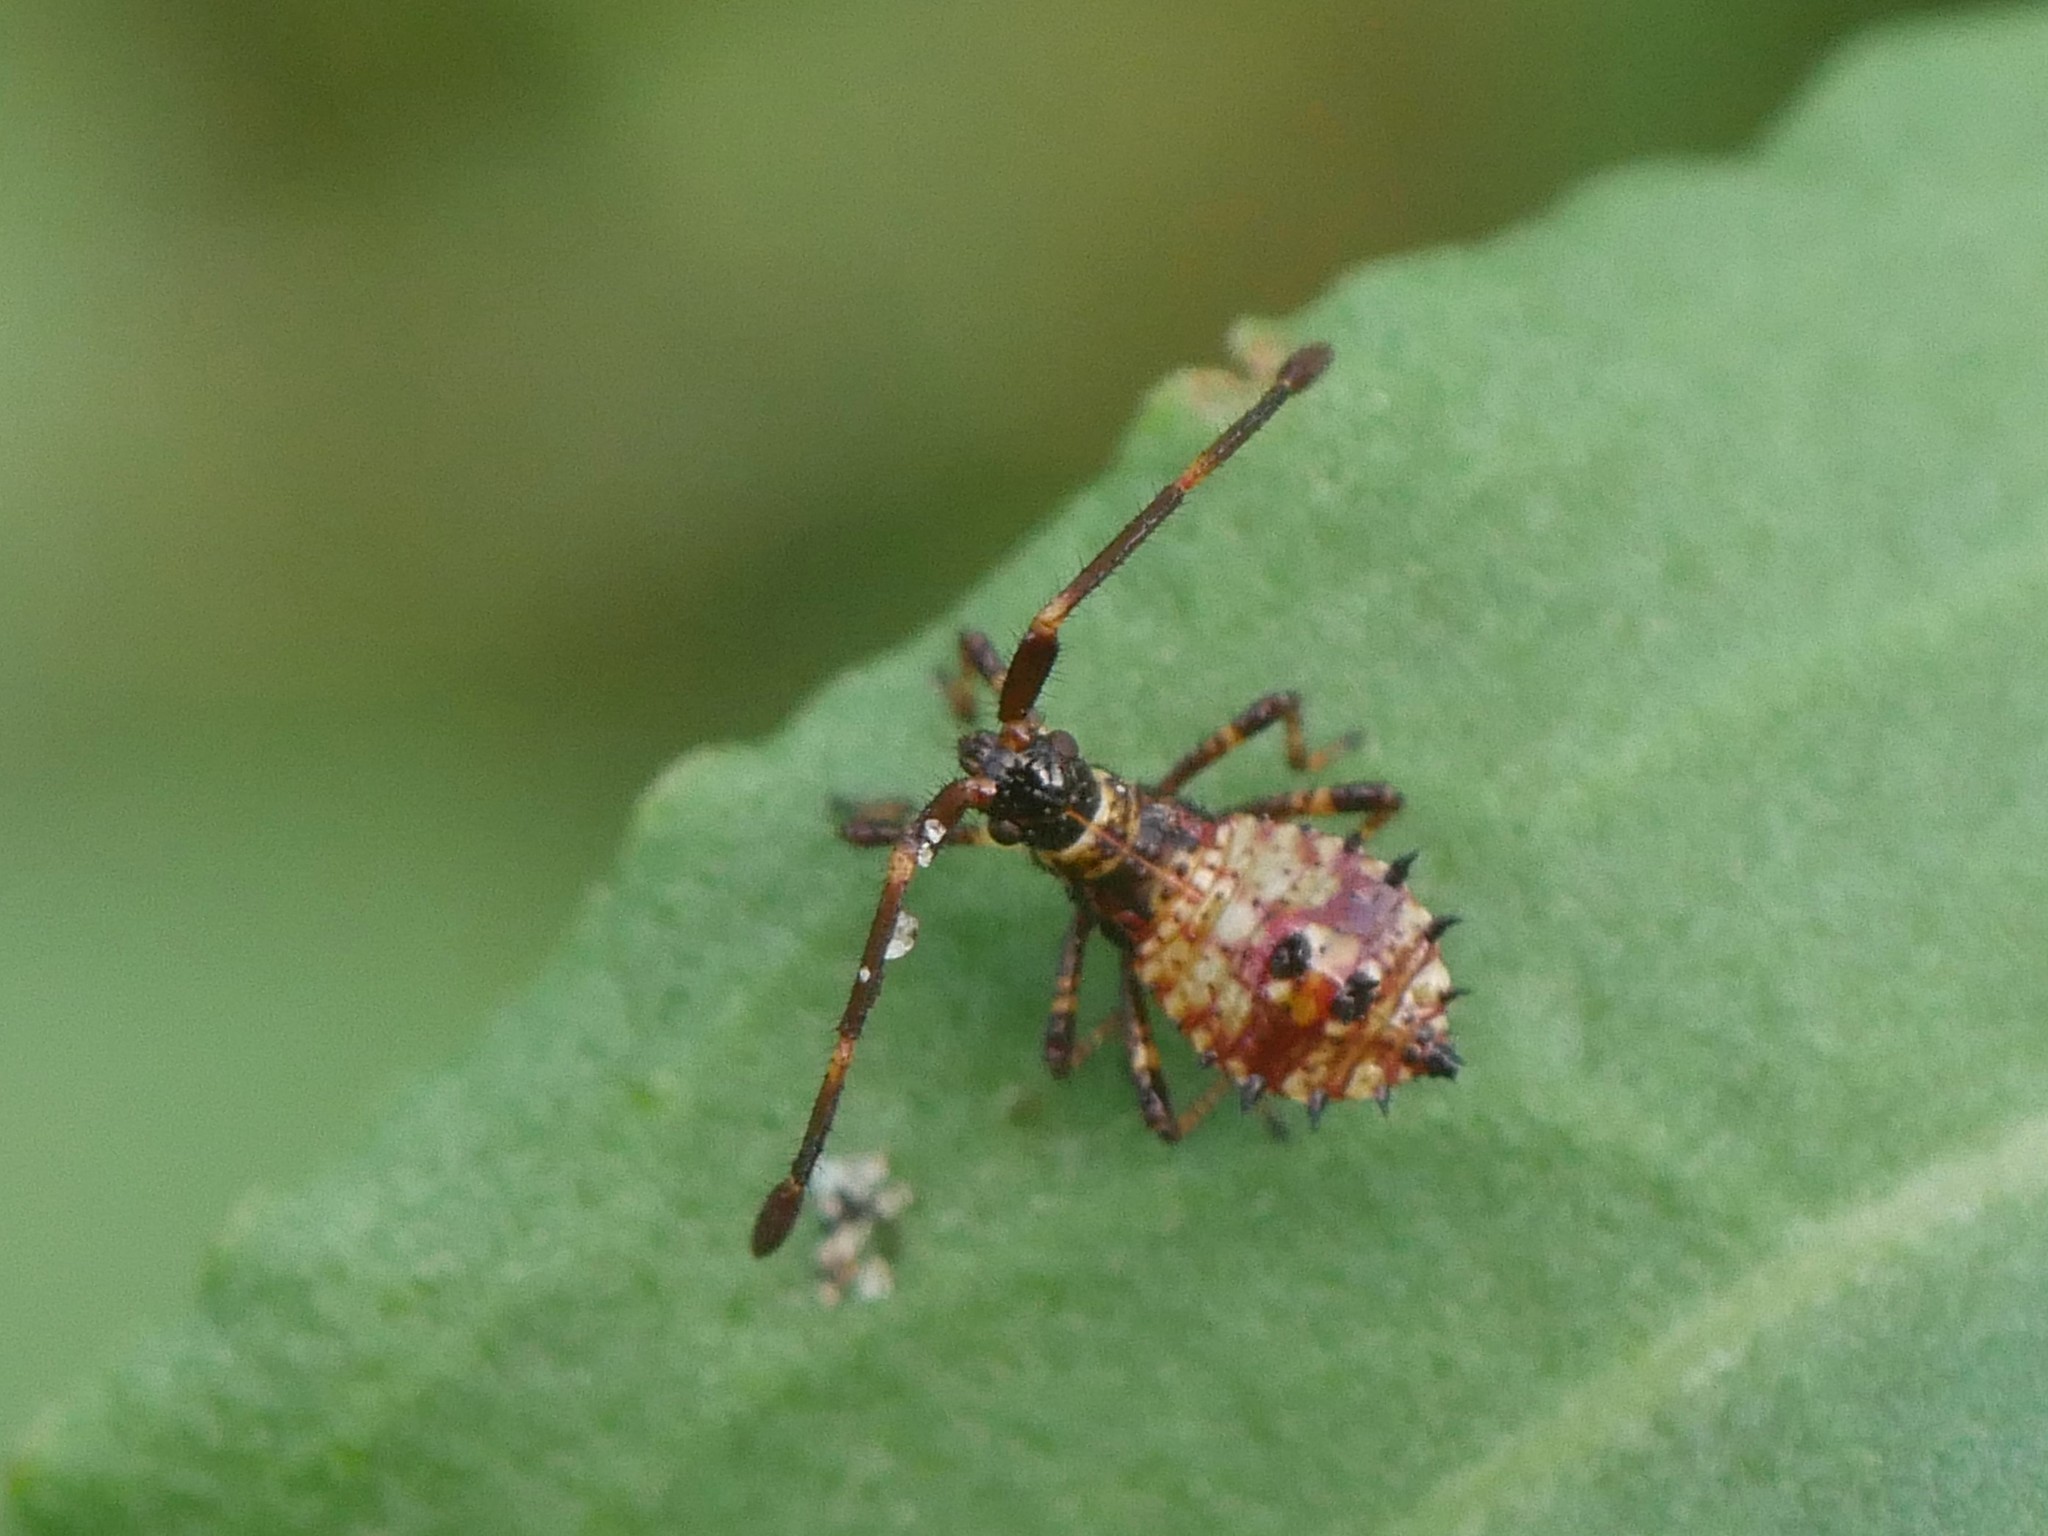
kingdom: Animalia
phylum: Arthropoda
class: Insecta
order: Hemiptera
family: Coreidae
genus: Coreus
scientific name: Coreus marginatus
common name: Dock bug
